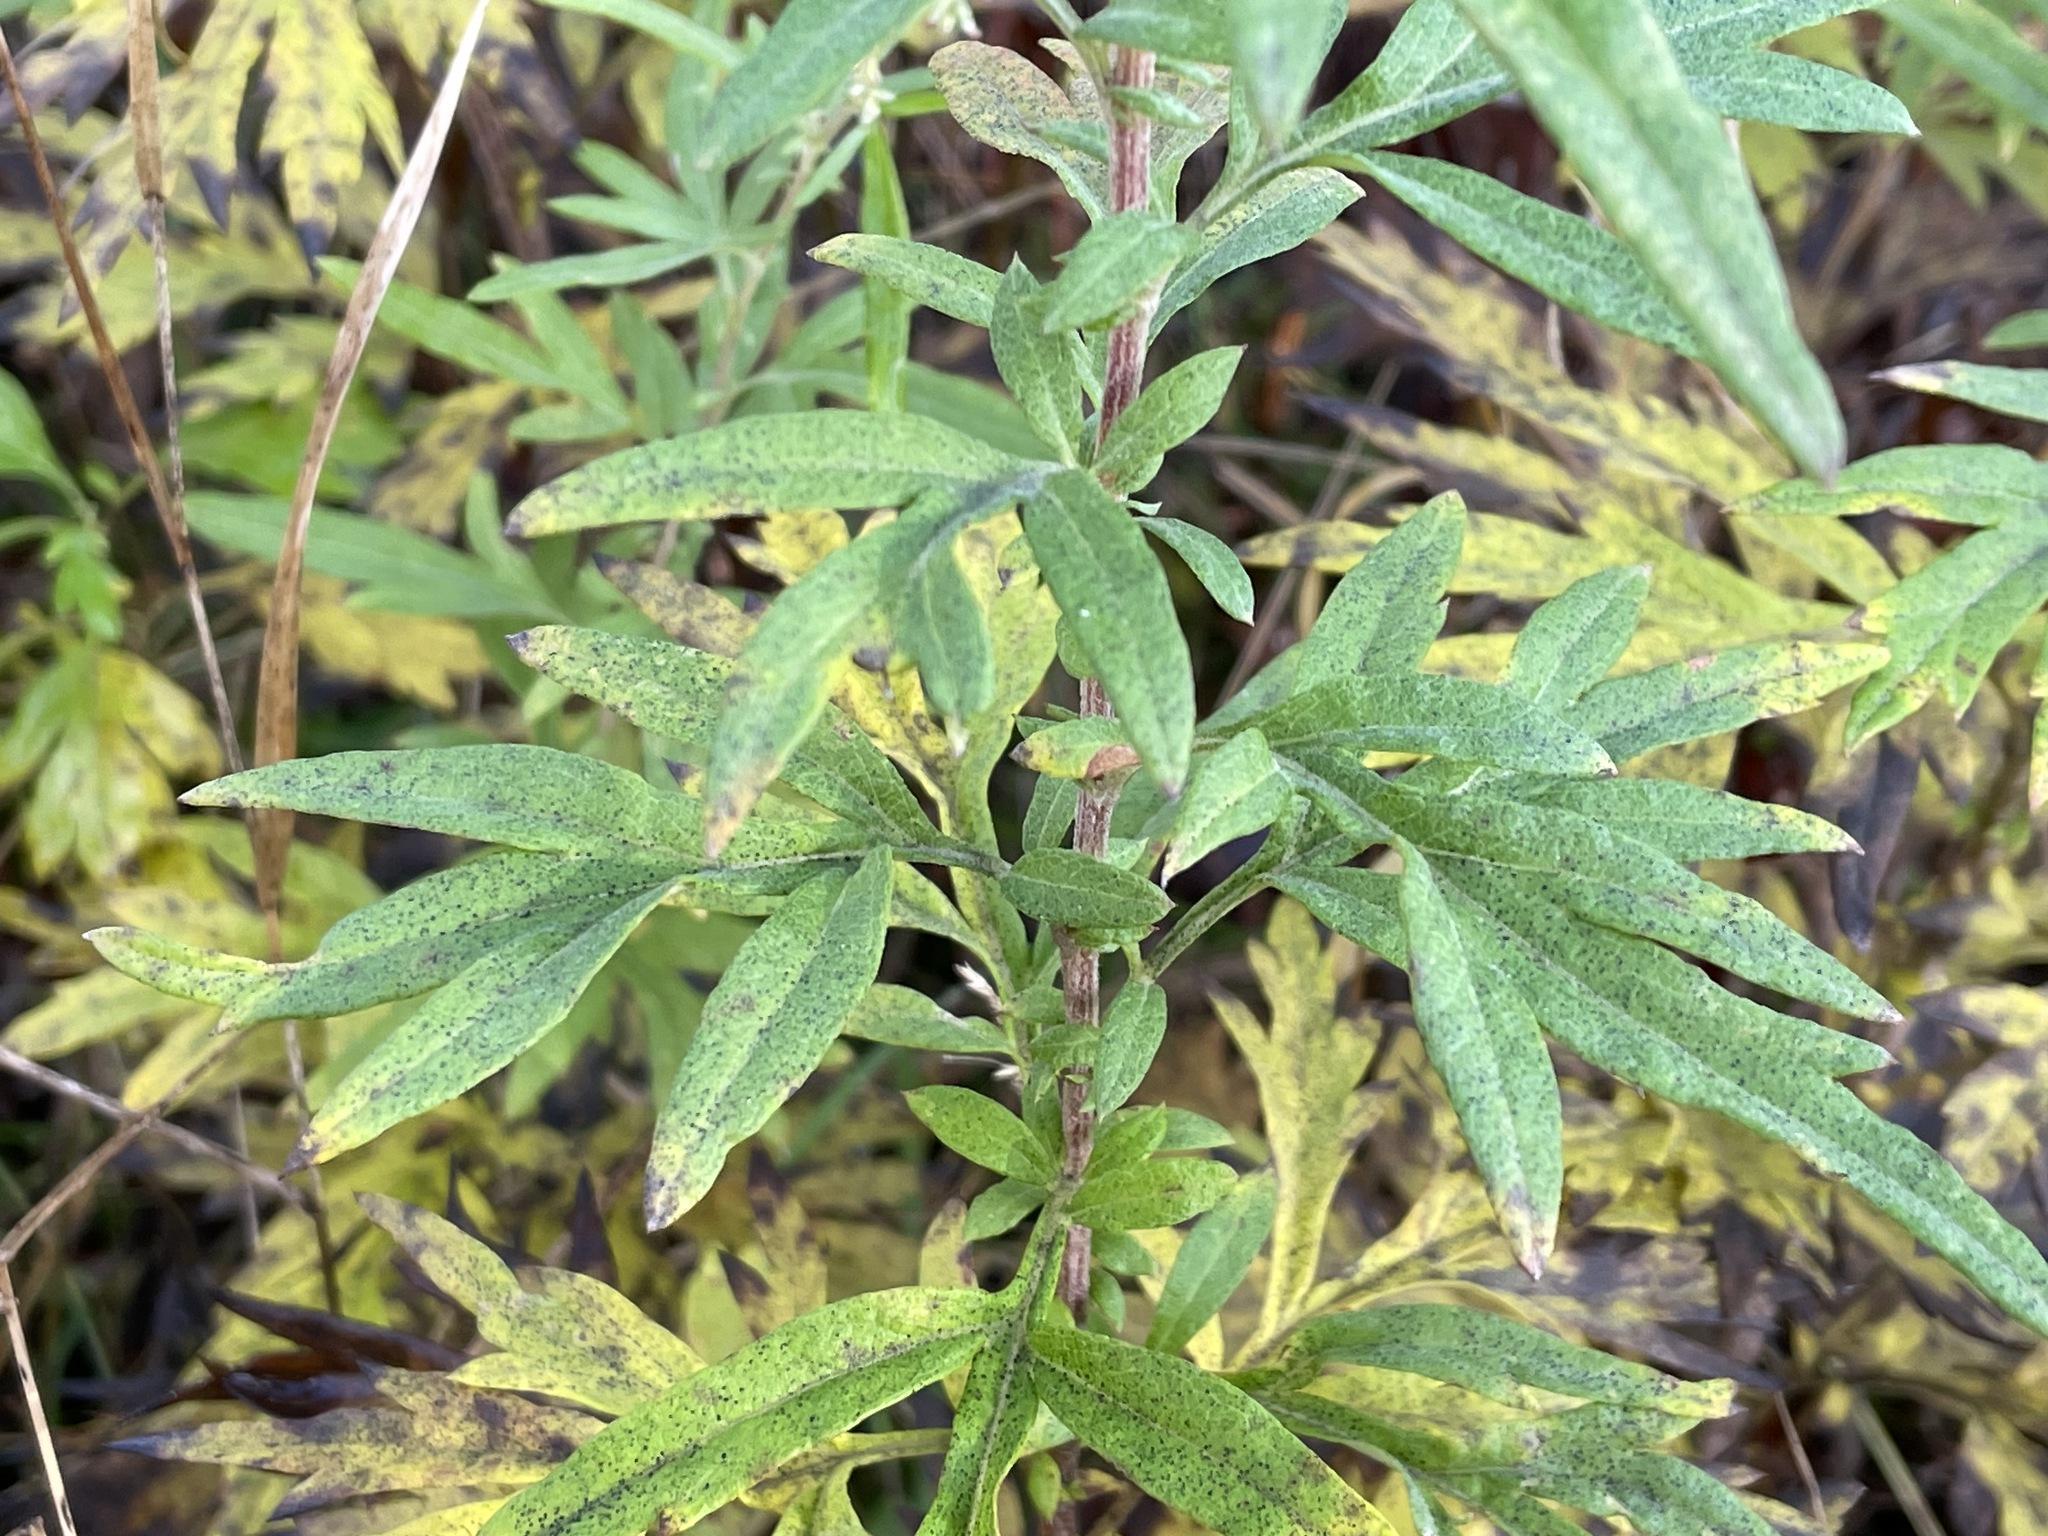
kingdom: Plantae
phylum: Tracheophyta
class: Magnoliopsida
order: Asterales
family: Asteraceae
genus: Artemisia
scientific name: Artemisia vulgaris
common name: Mugwort
